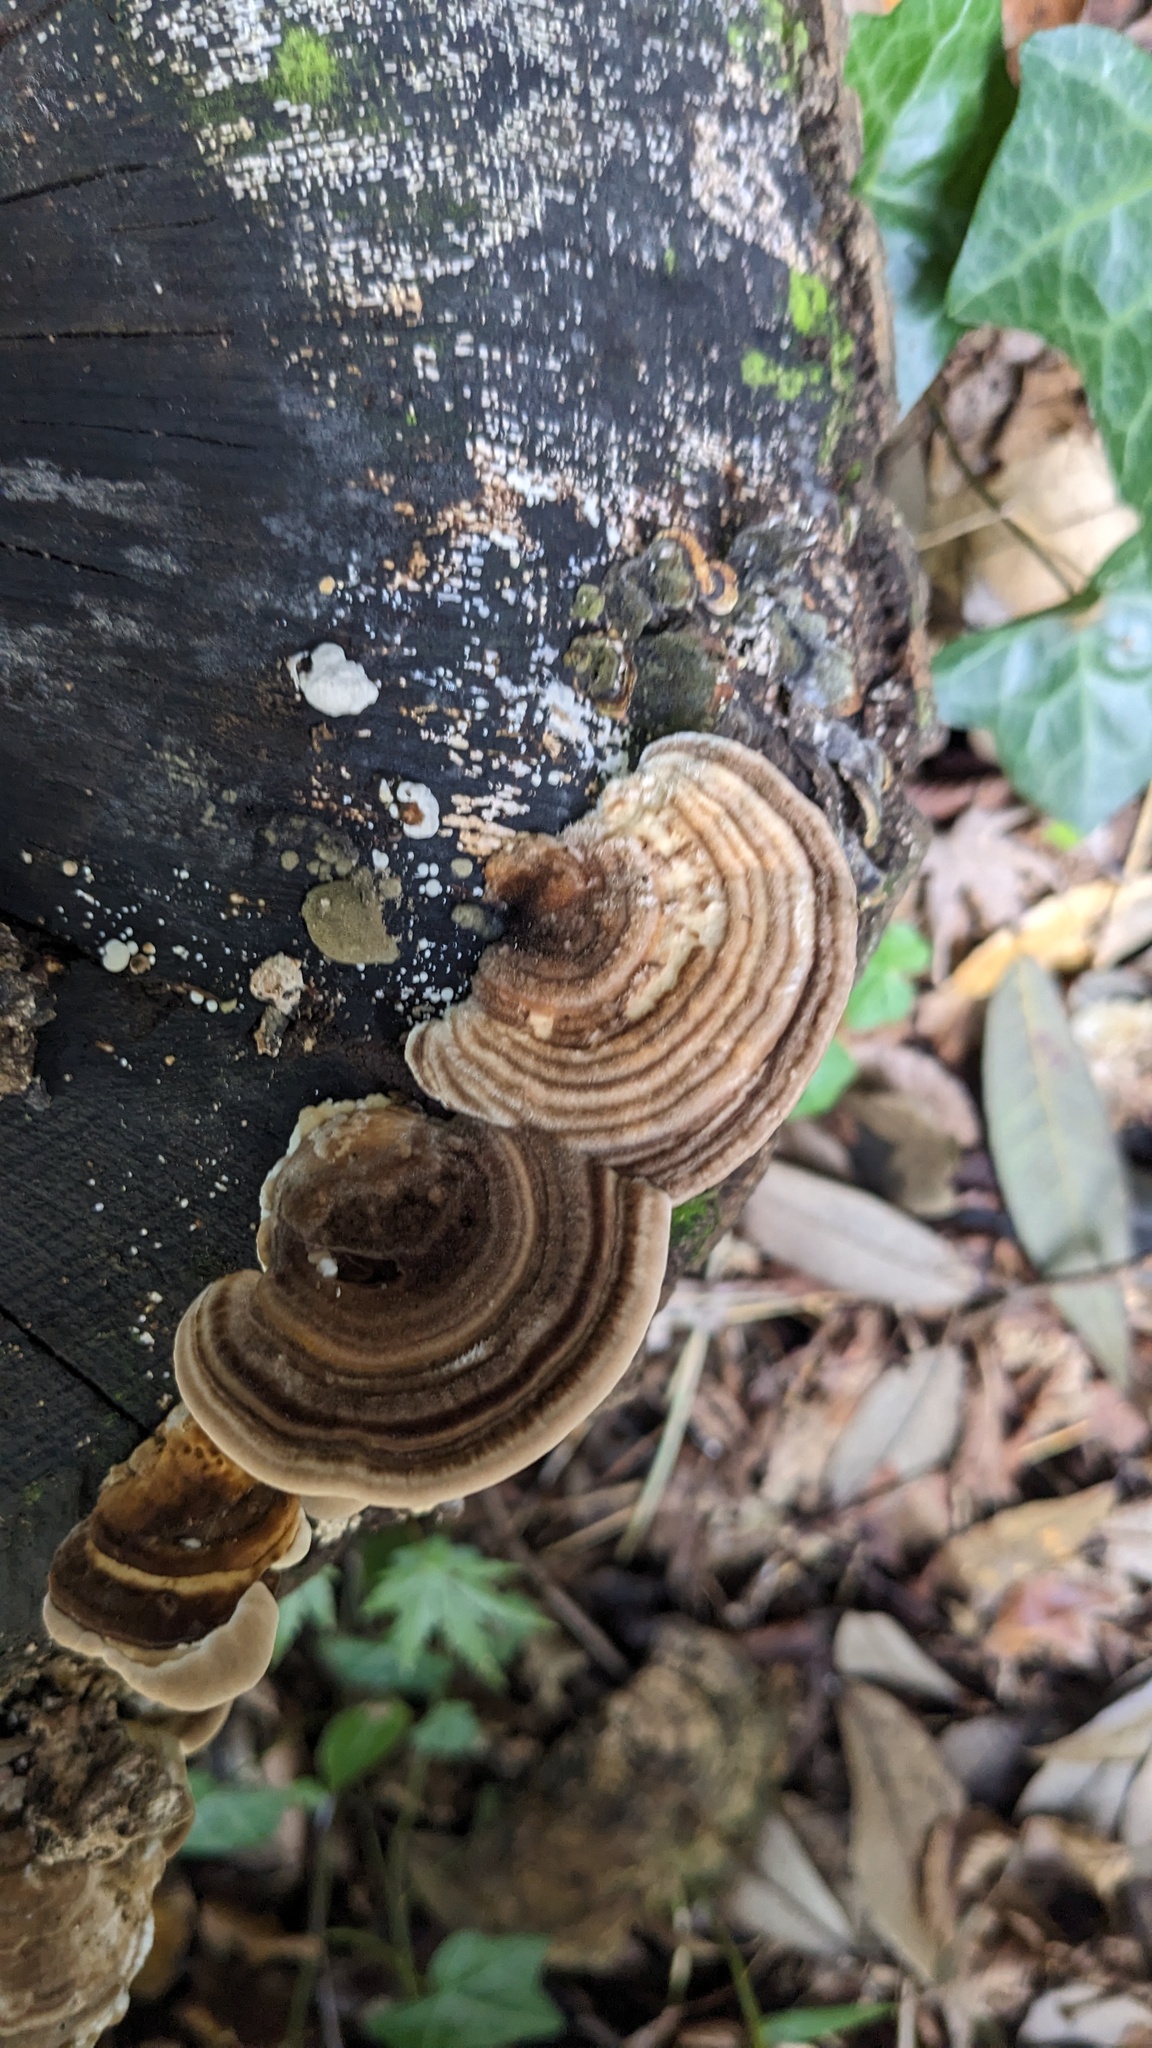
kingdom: Fungi
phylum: Basidiomycota
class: Agaricomycetes
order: Polyporales
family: Polyporaceae
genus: Lenzites
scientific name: Lenzites betulinus
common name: Birch mazegill
